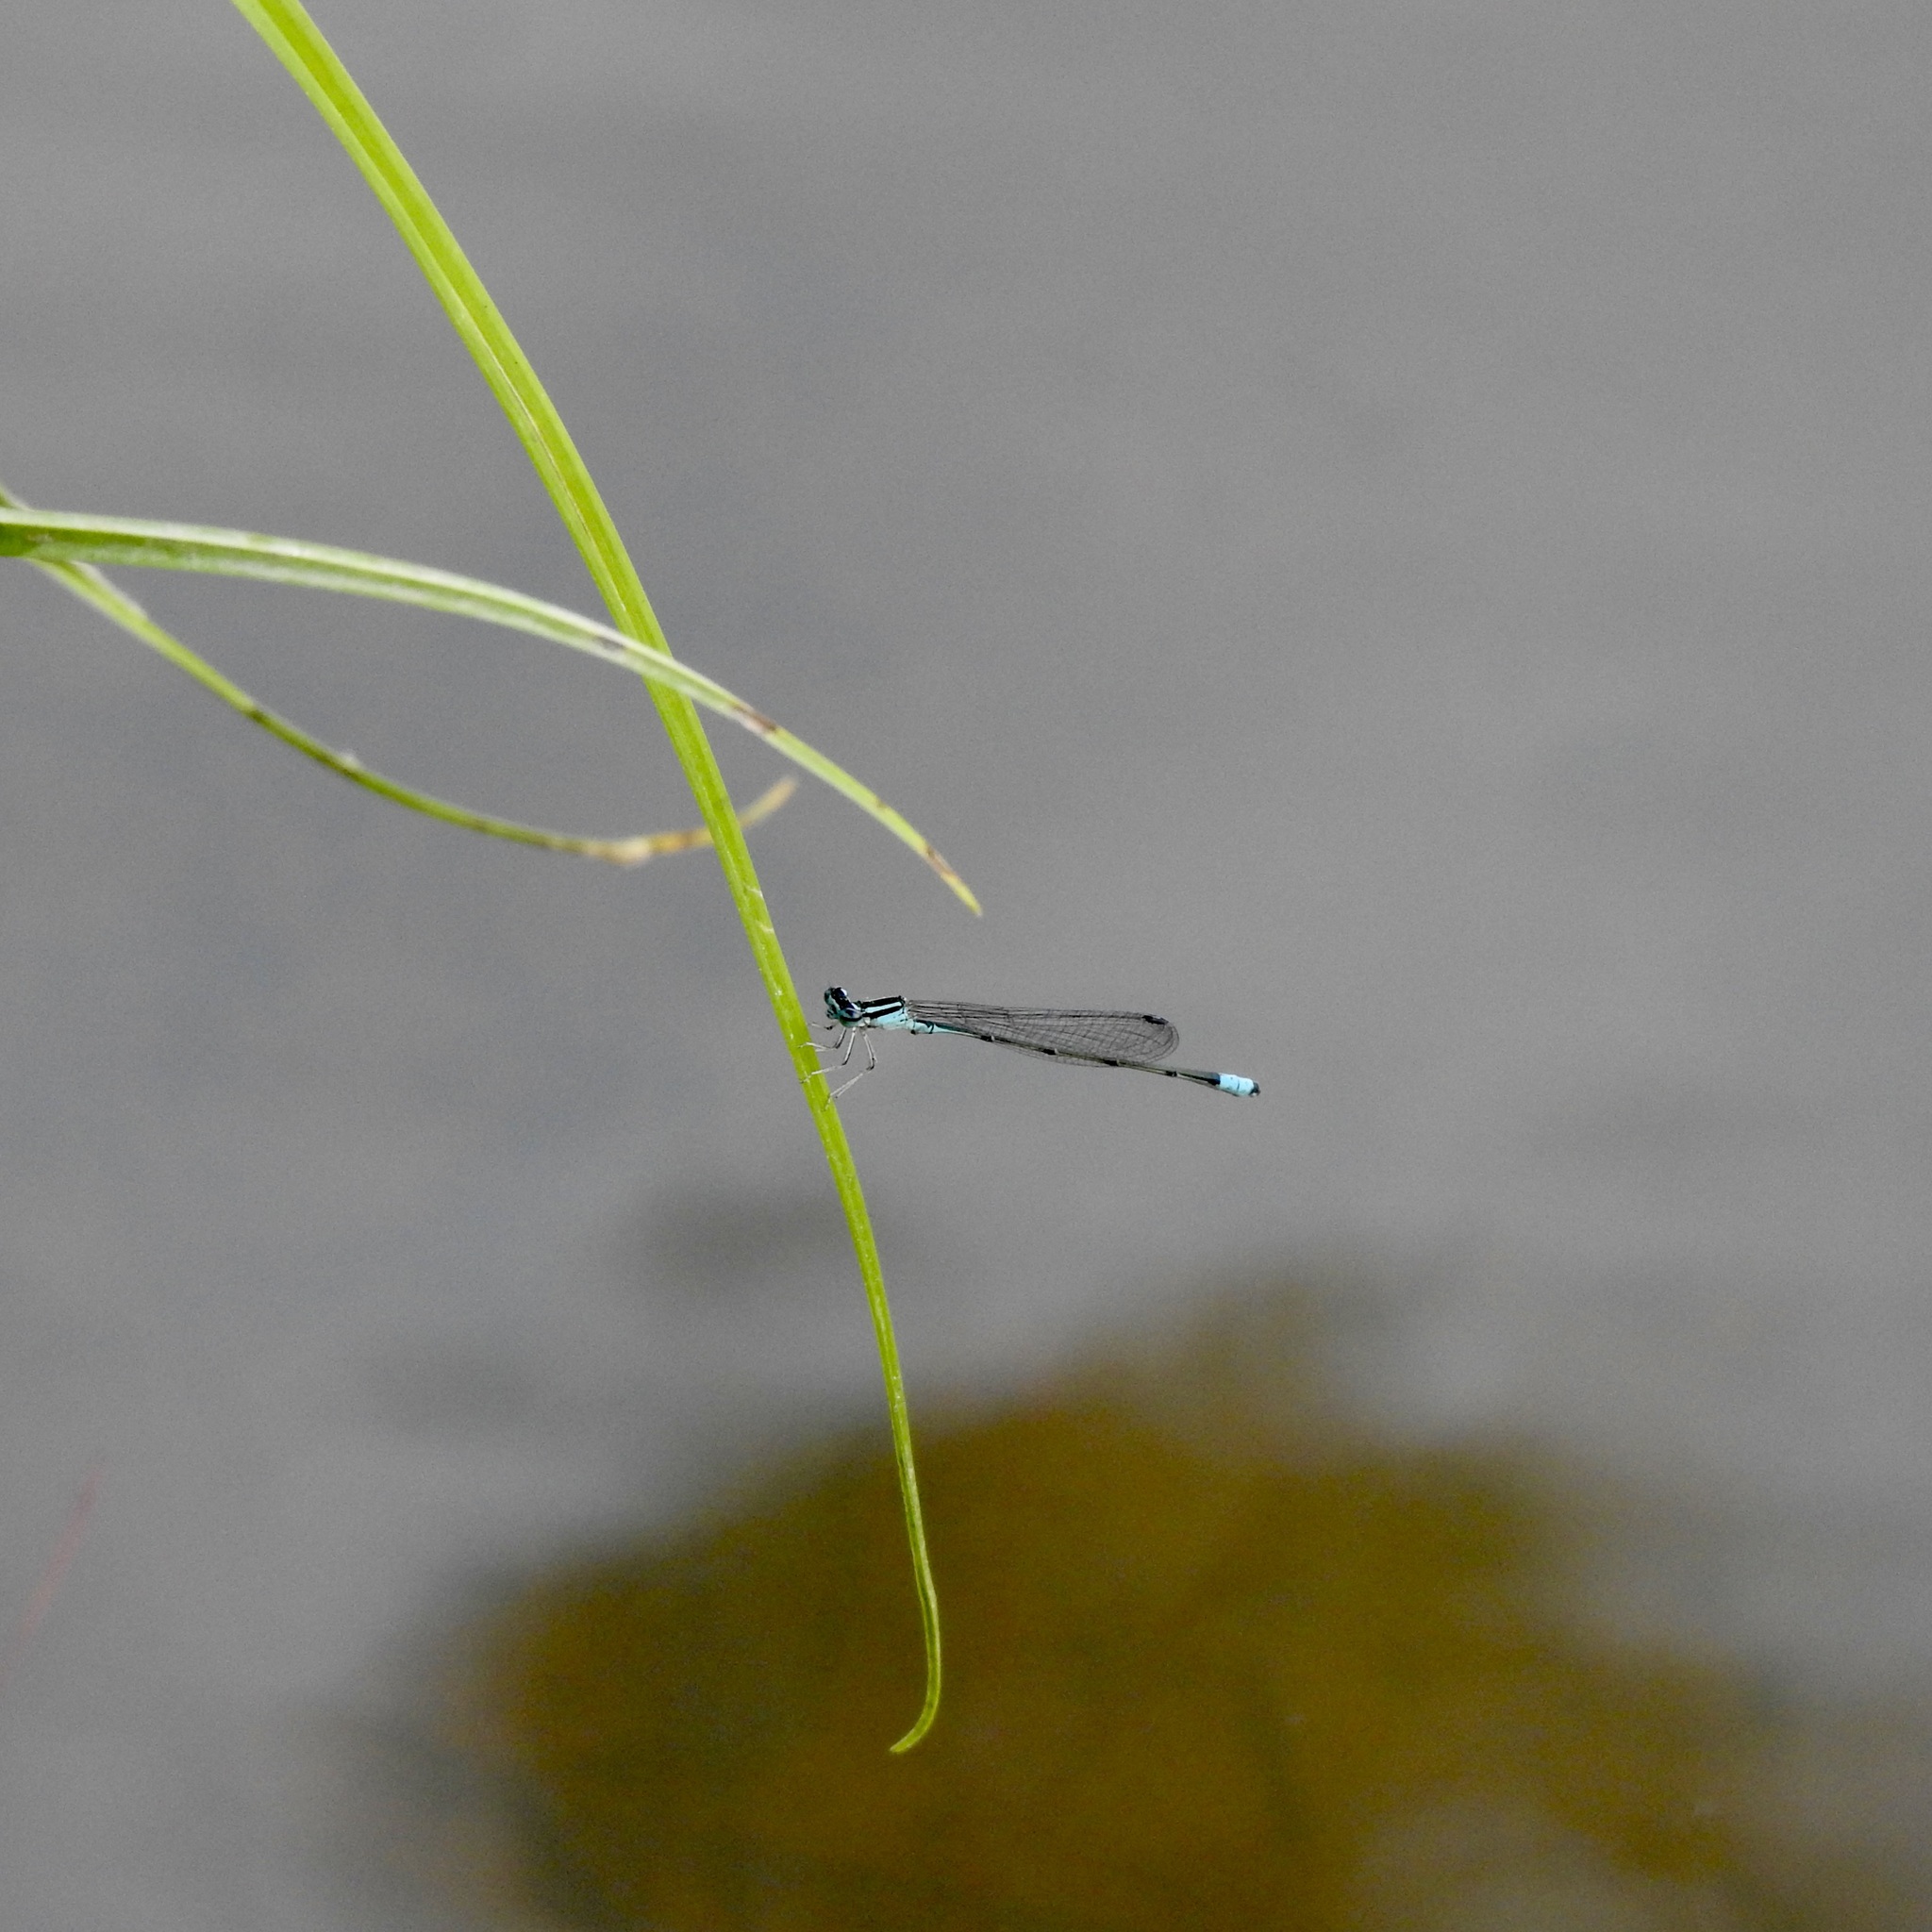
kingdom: Animalia
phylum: Arthropoda
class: Insecta
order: Odonata
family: Coenagrionidae
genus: Enallagma
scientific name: Enallagma divagans
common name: Turquoise bluet
